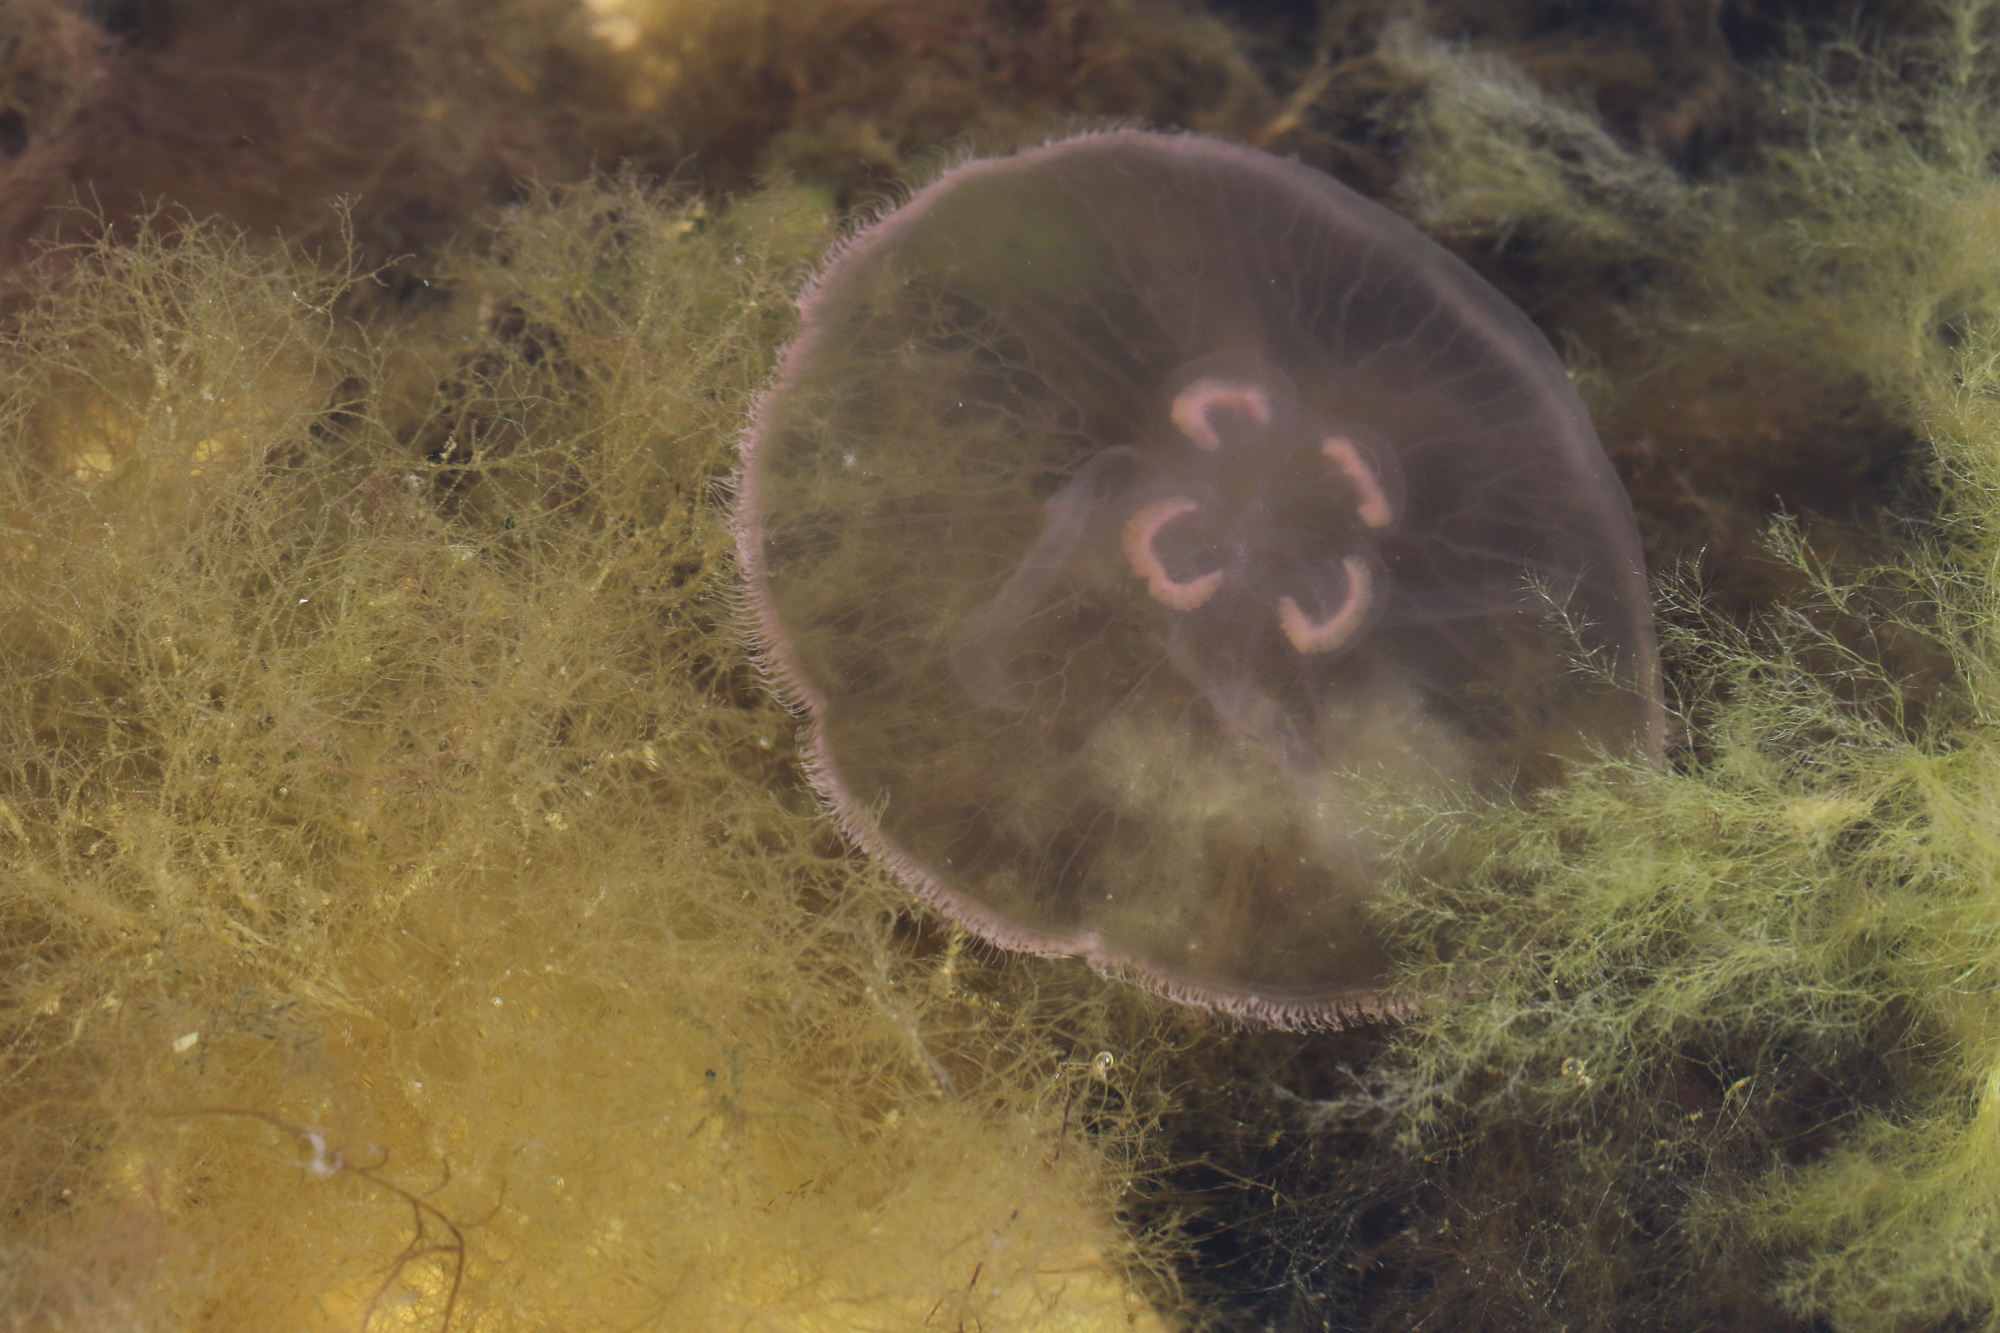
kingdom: Animalia
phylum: Cnidaria
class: Scyphozoa
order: Semaeostomeae
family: Ulmaridae
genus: Aurelia
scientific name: Aurelia aurita
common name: Moon jellyfish
